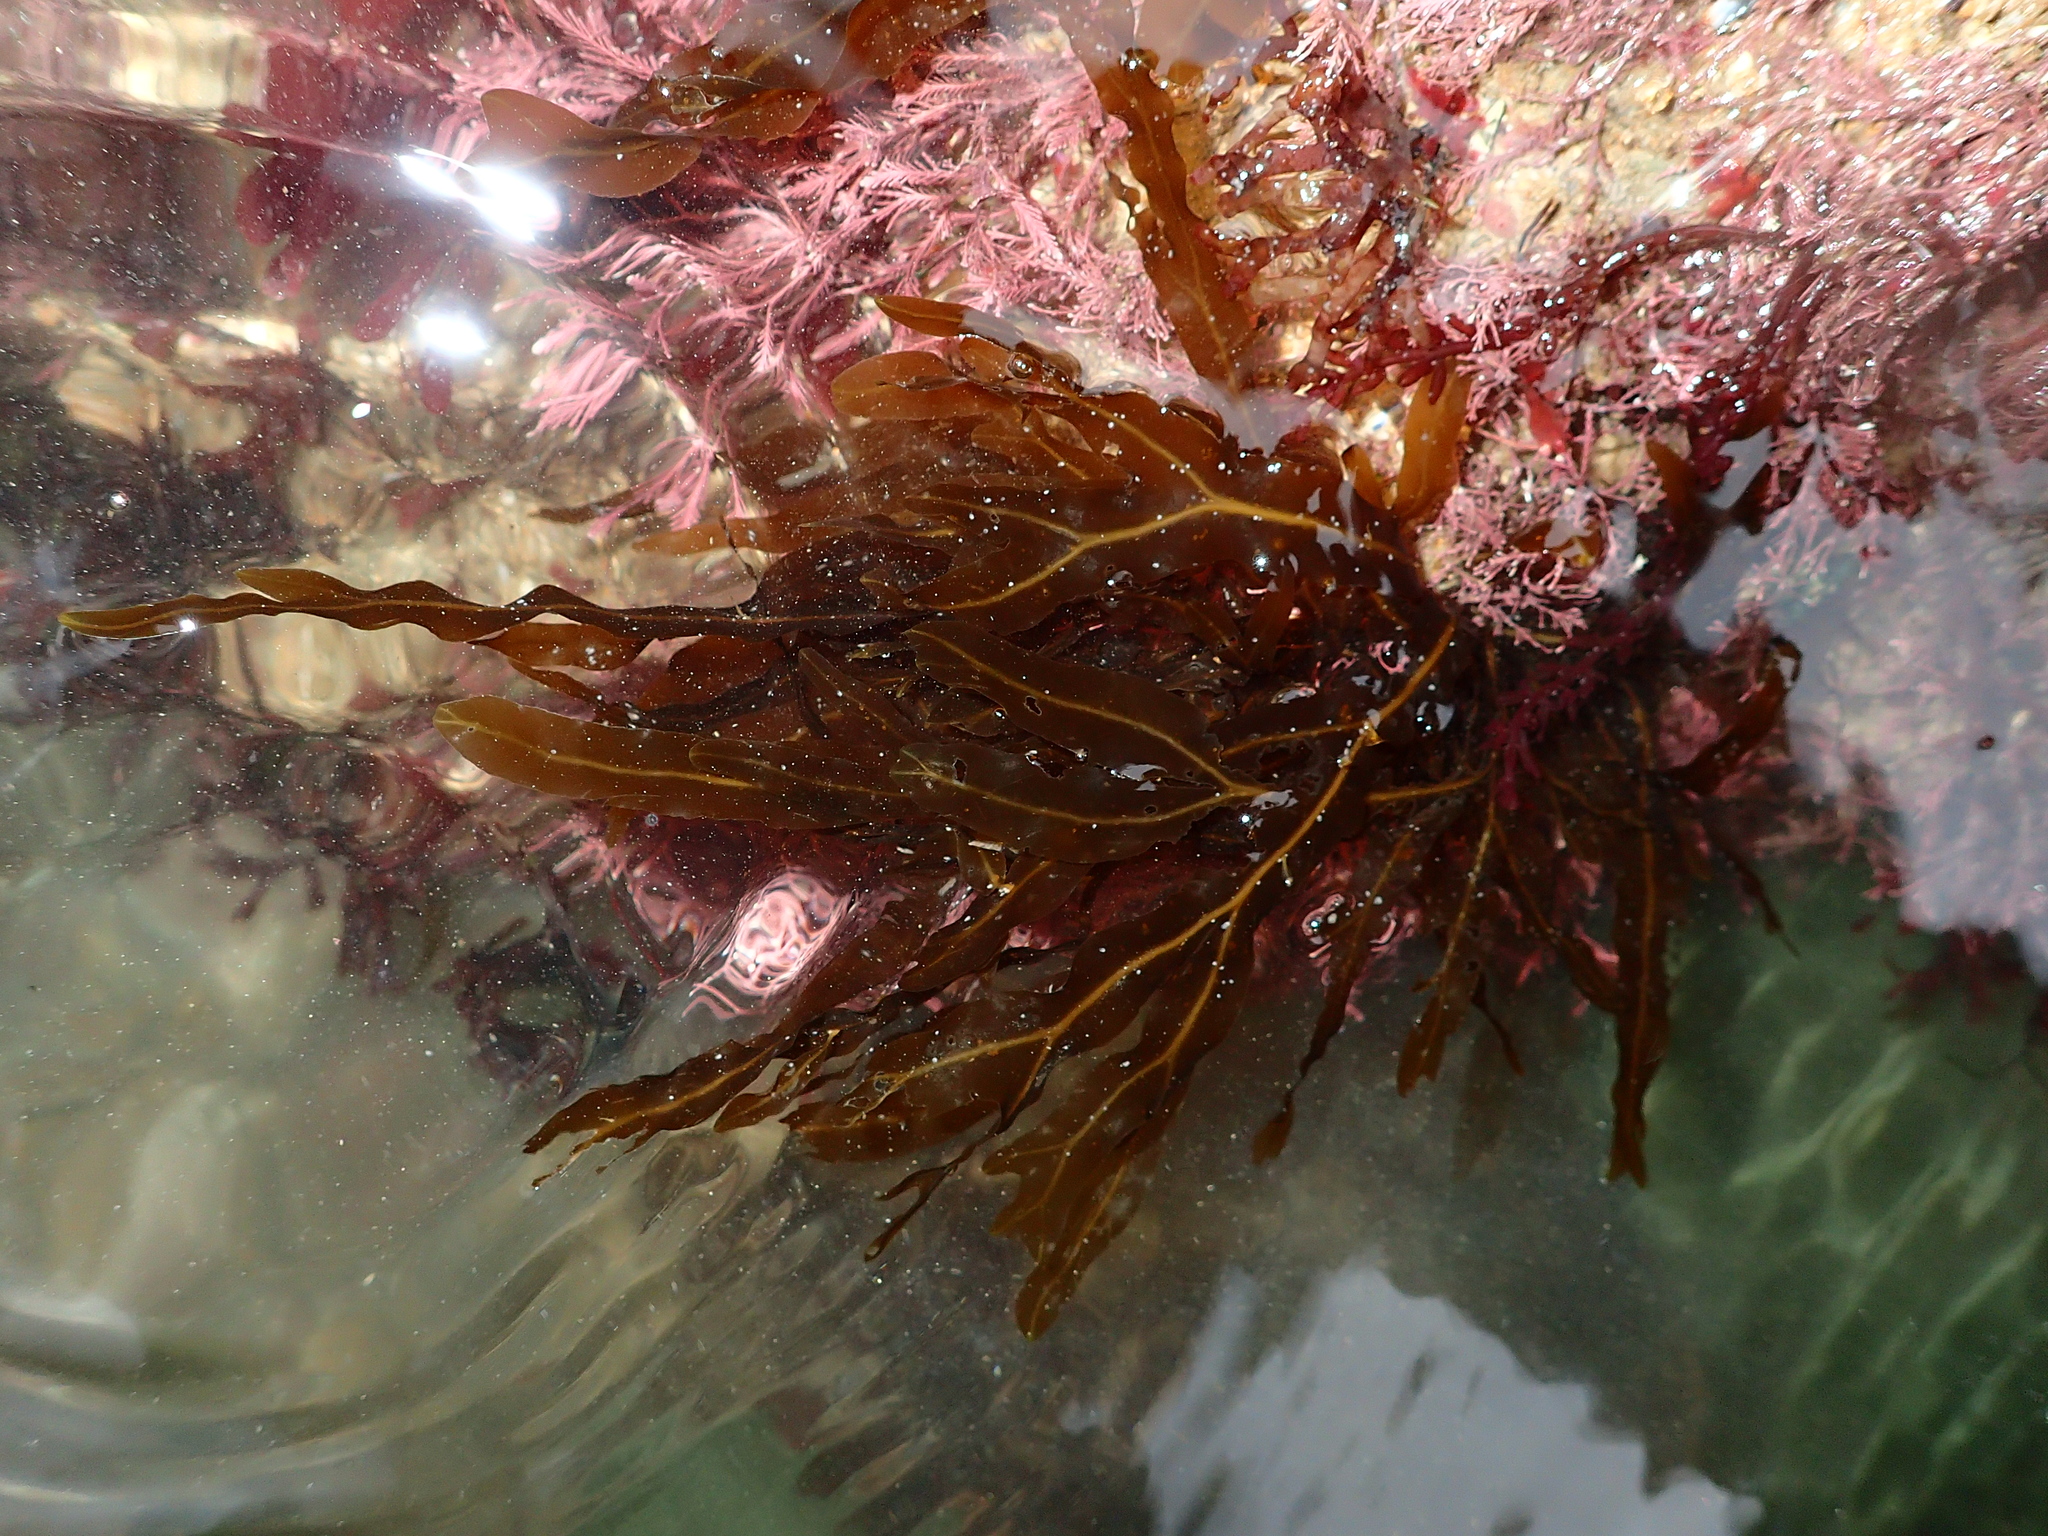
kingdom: Chromista
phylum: Ochrophyta
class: Phaeophyceae
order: Dictyotales
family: Dictyotaceae
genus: Dictyopteris
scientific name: Dictyopteris polypodioides
